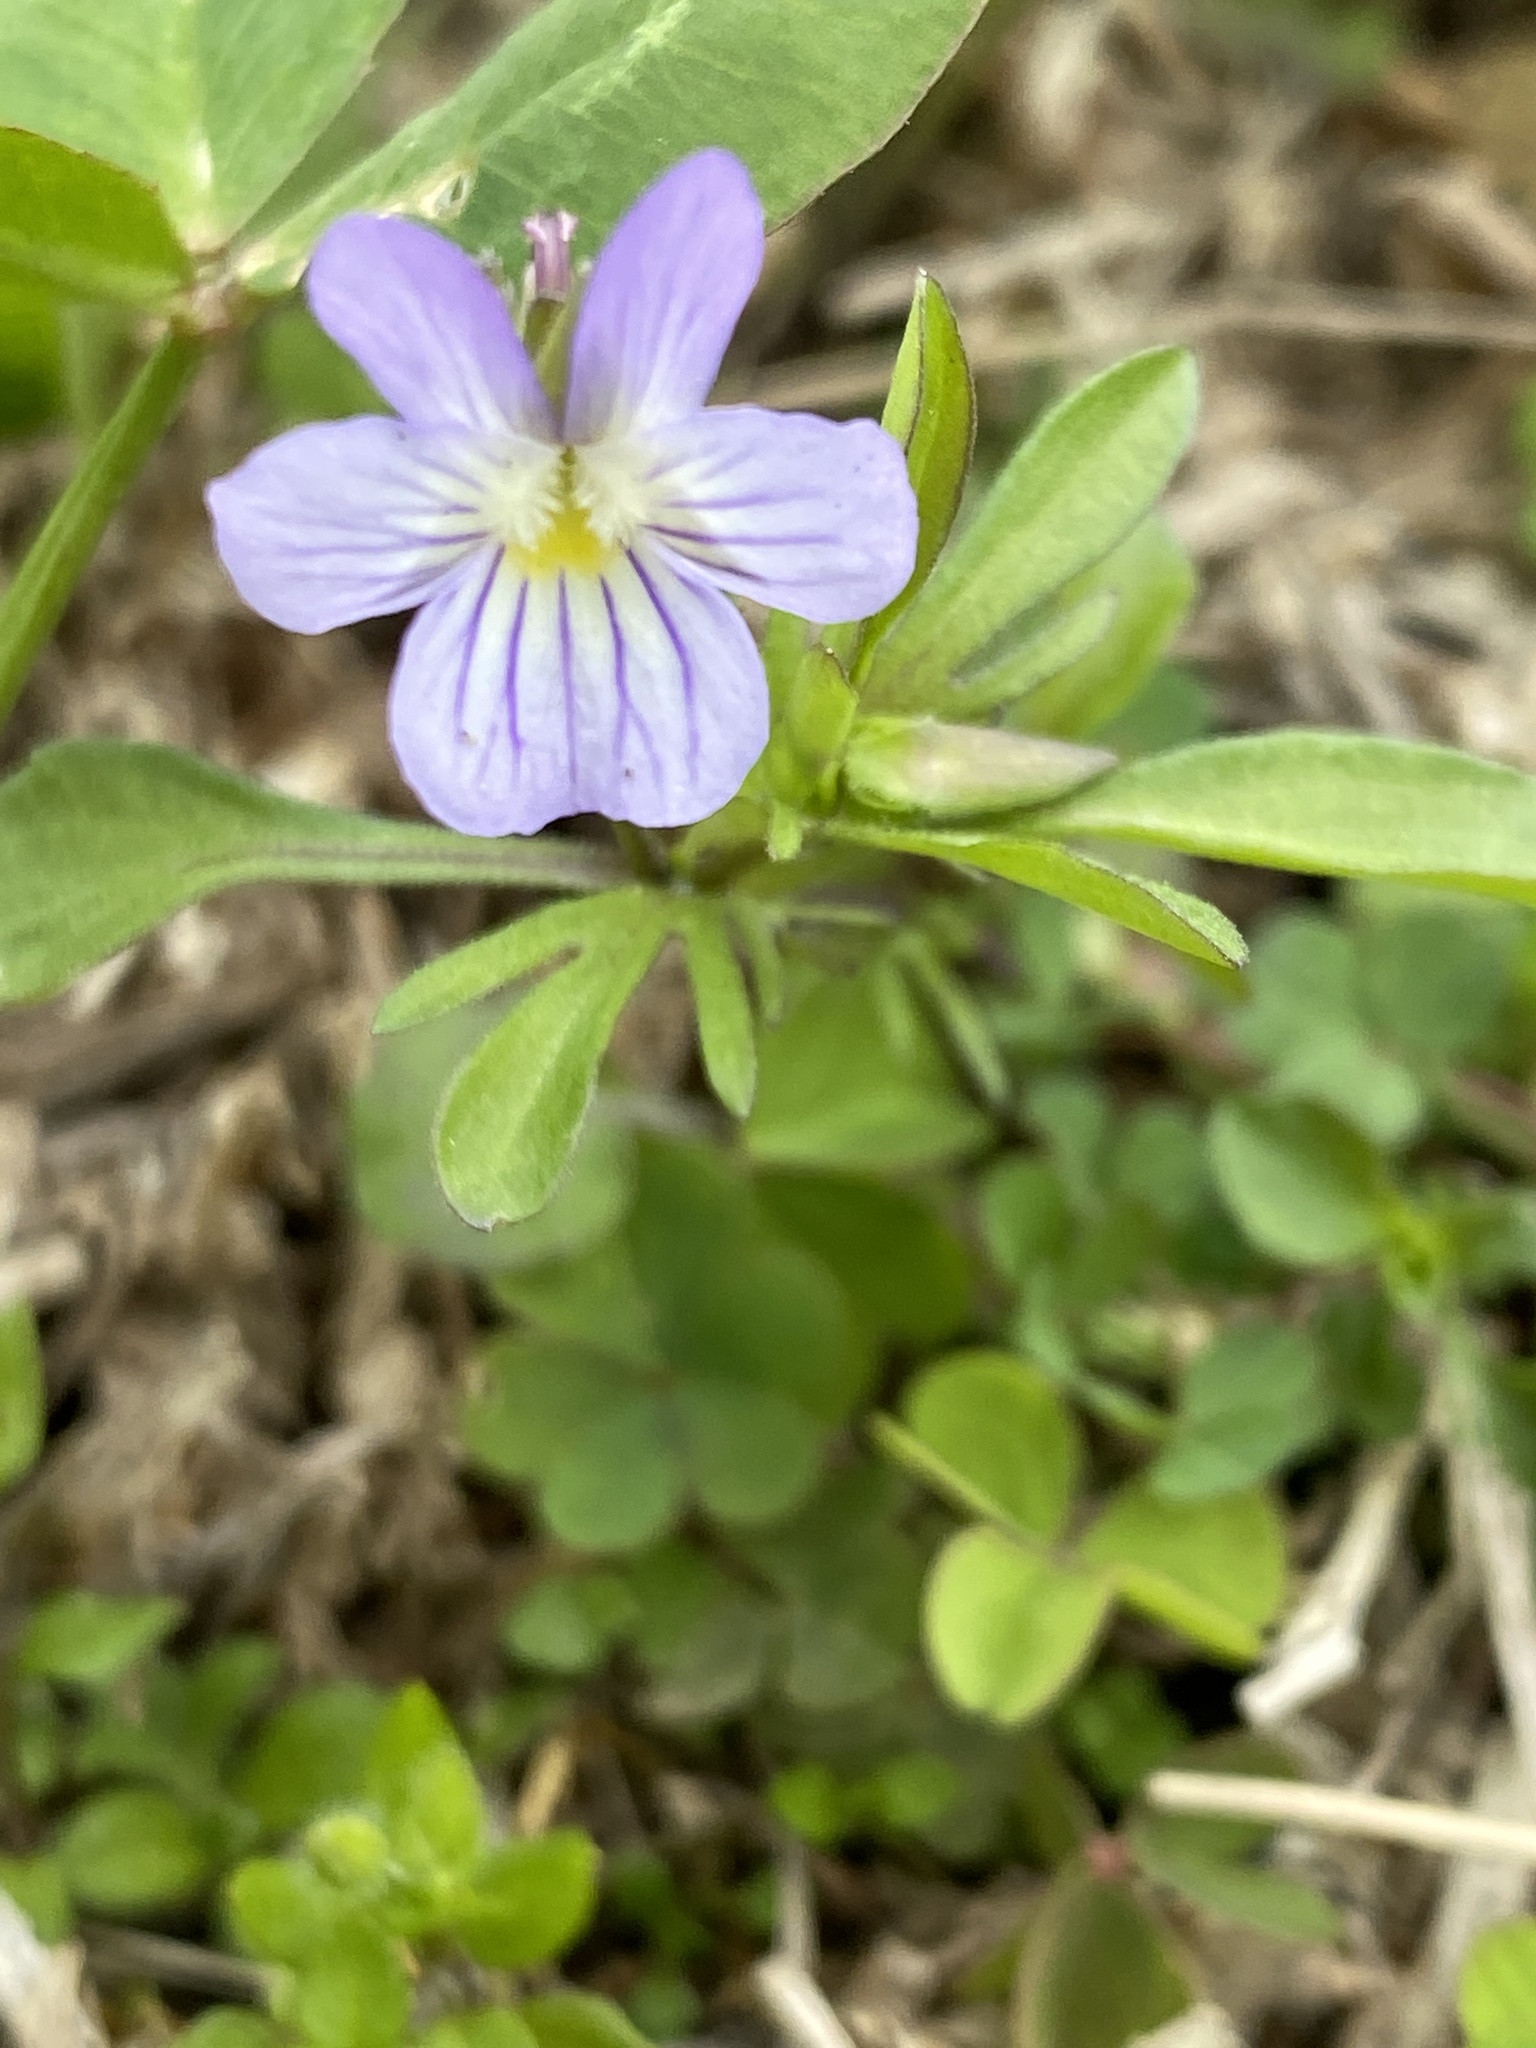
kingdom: Plantae
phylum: Tracheophyta
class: Magnoliopsida
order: Malpighiales
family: Violaceae
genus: Viola
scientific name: Viola rafinesquei
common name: American field pansy
